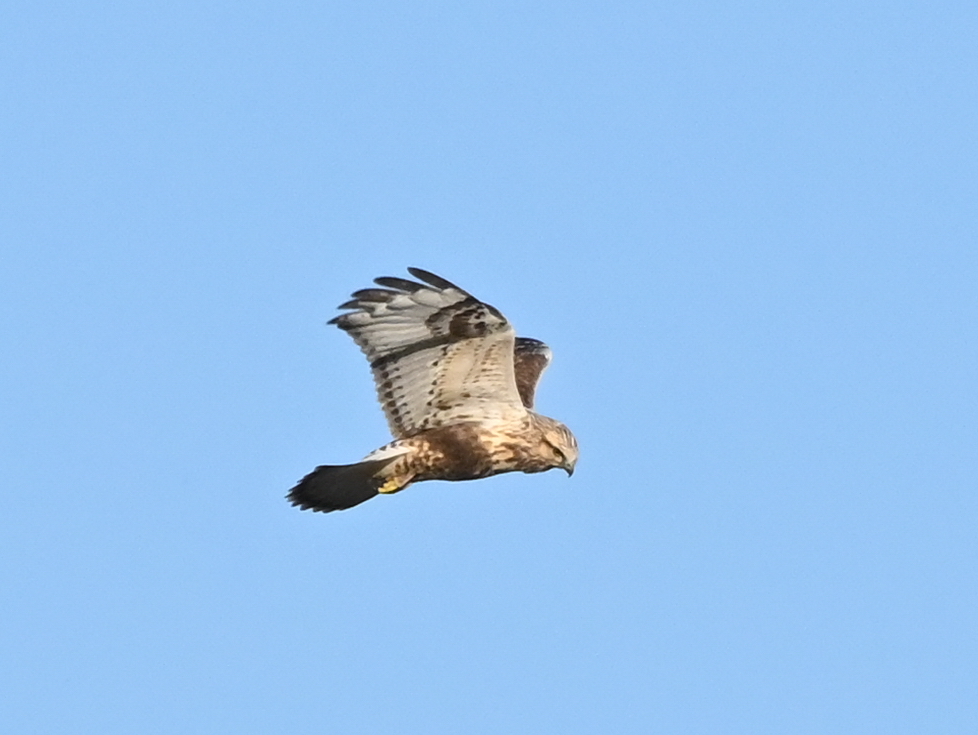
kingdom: Animalia
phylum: Chordata
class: Aves
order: Accipitriformes
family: Accipitridae
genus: Buteo
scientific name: Buteo lagopus
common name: Rough-legged buzzard
